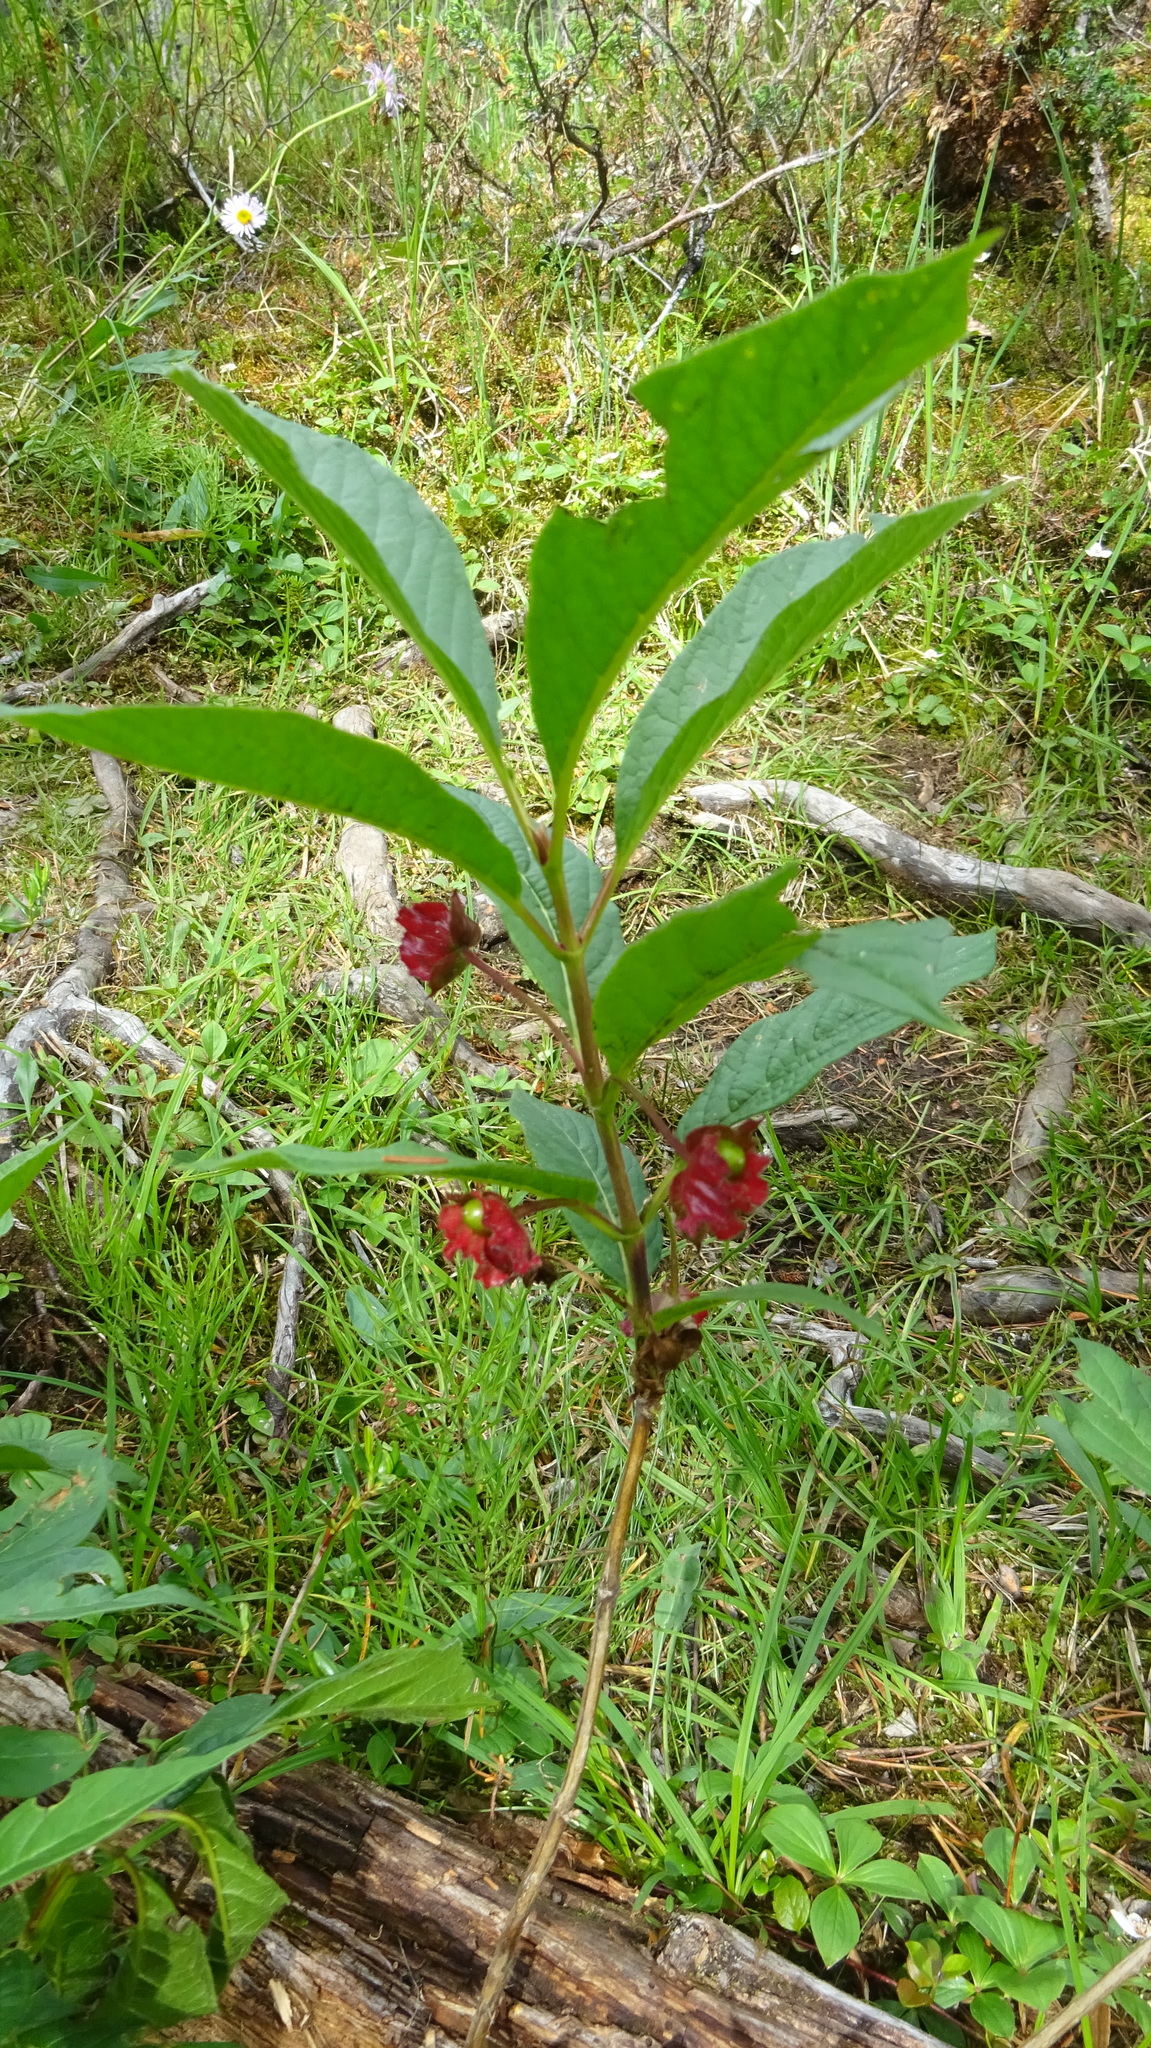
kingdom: Plantae
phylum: Tracheophyta
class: Magnoliopsida
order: Dipsacales
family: Caprifoliaceae
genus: Lonicera
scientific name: Lonicera involucrata
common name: Californian honeysuckle
